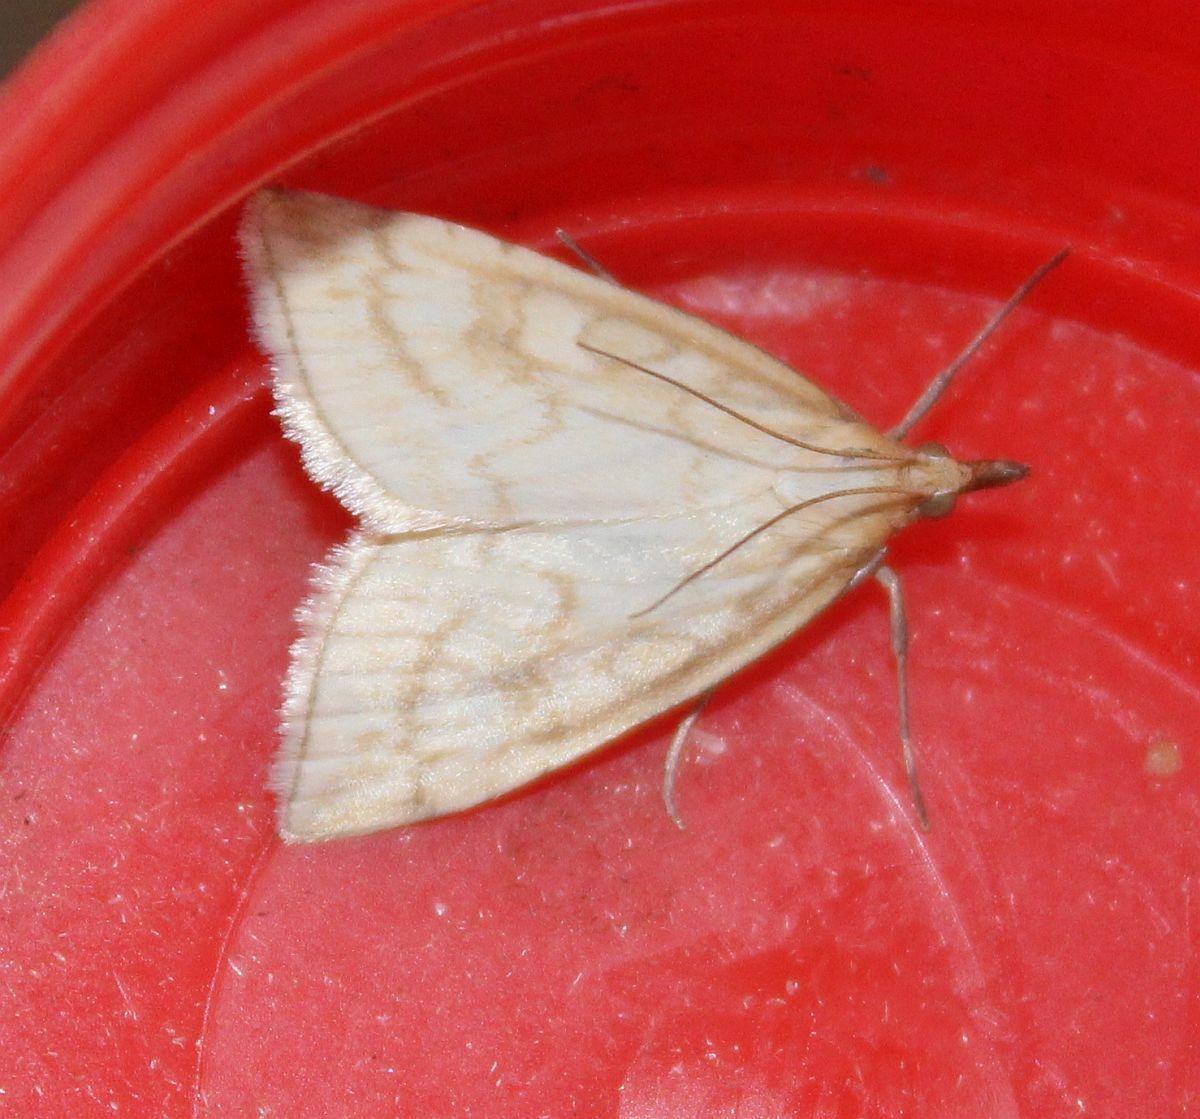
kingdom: Animalia
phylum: Arthropoda
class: Insecta
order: Lepidoptera
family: Crambidae
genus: Udea
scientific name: Udea lutealis
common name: Pale straw pearl
